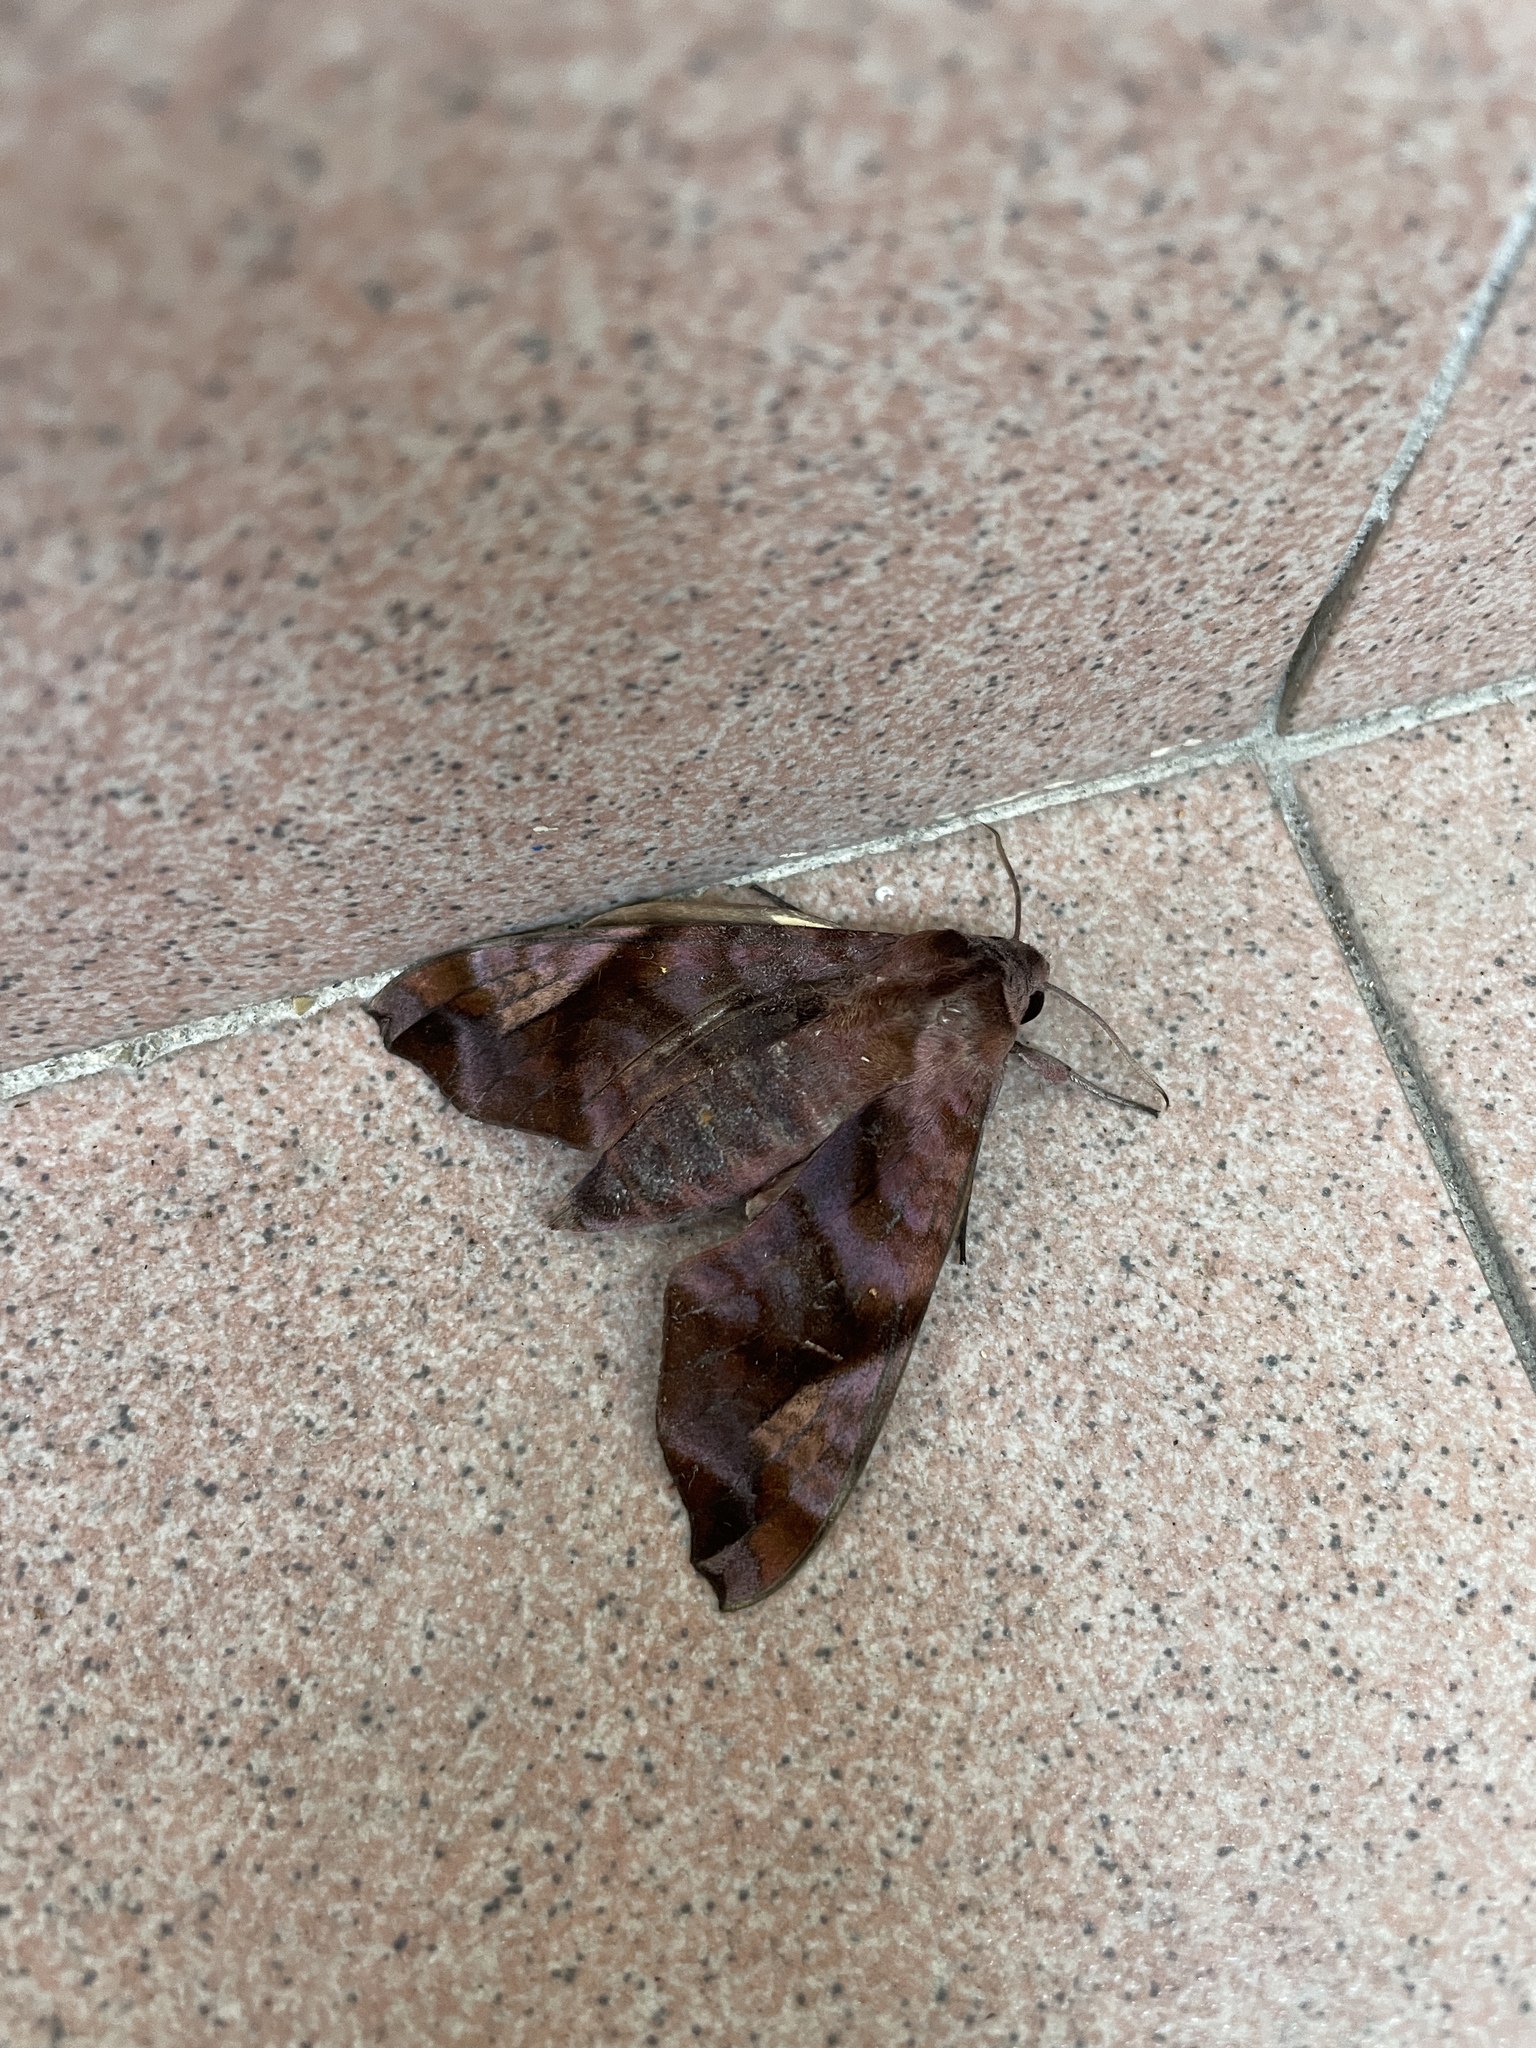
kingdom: Animalia
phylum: Arthropoda
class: Insecta
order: Lepidoptera
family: Sphingidae
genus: Acosmeryx
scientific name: Acosmeryx anceus
